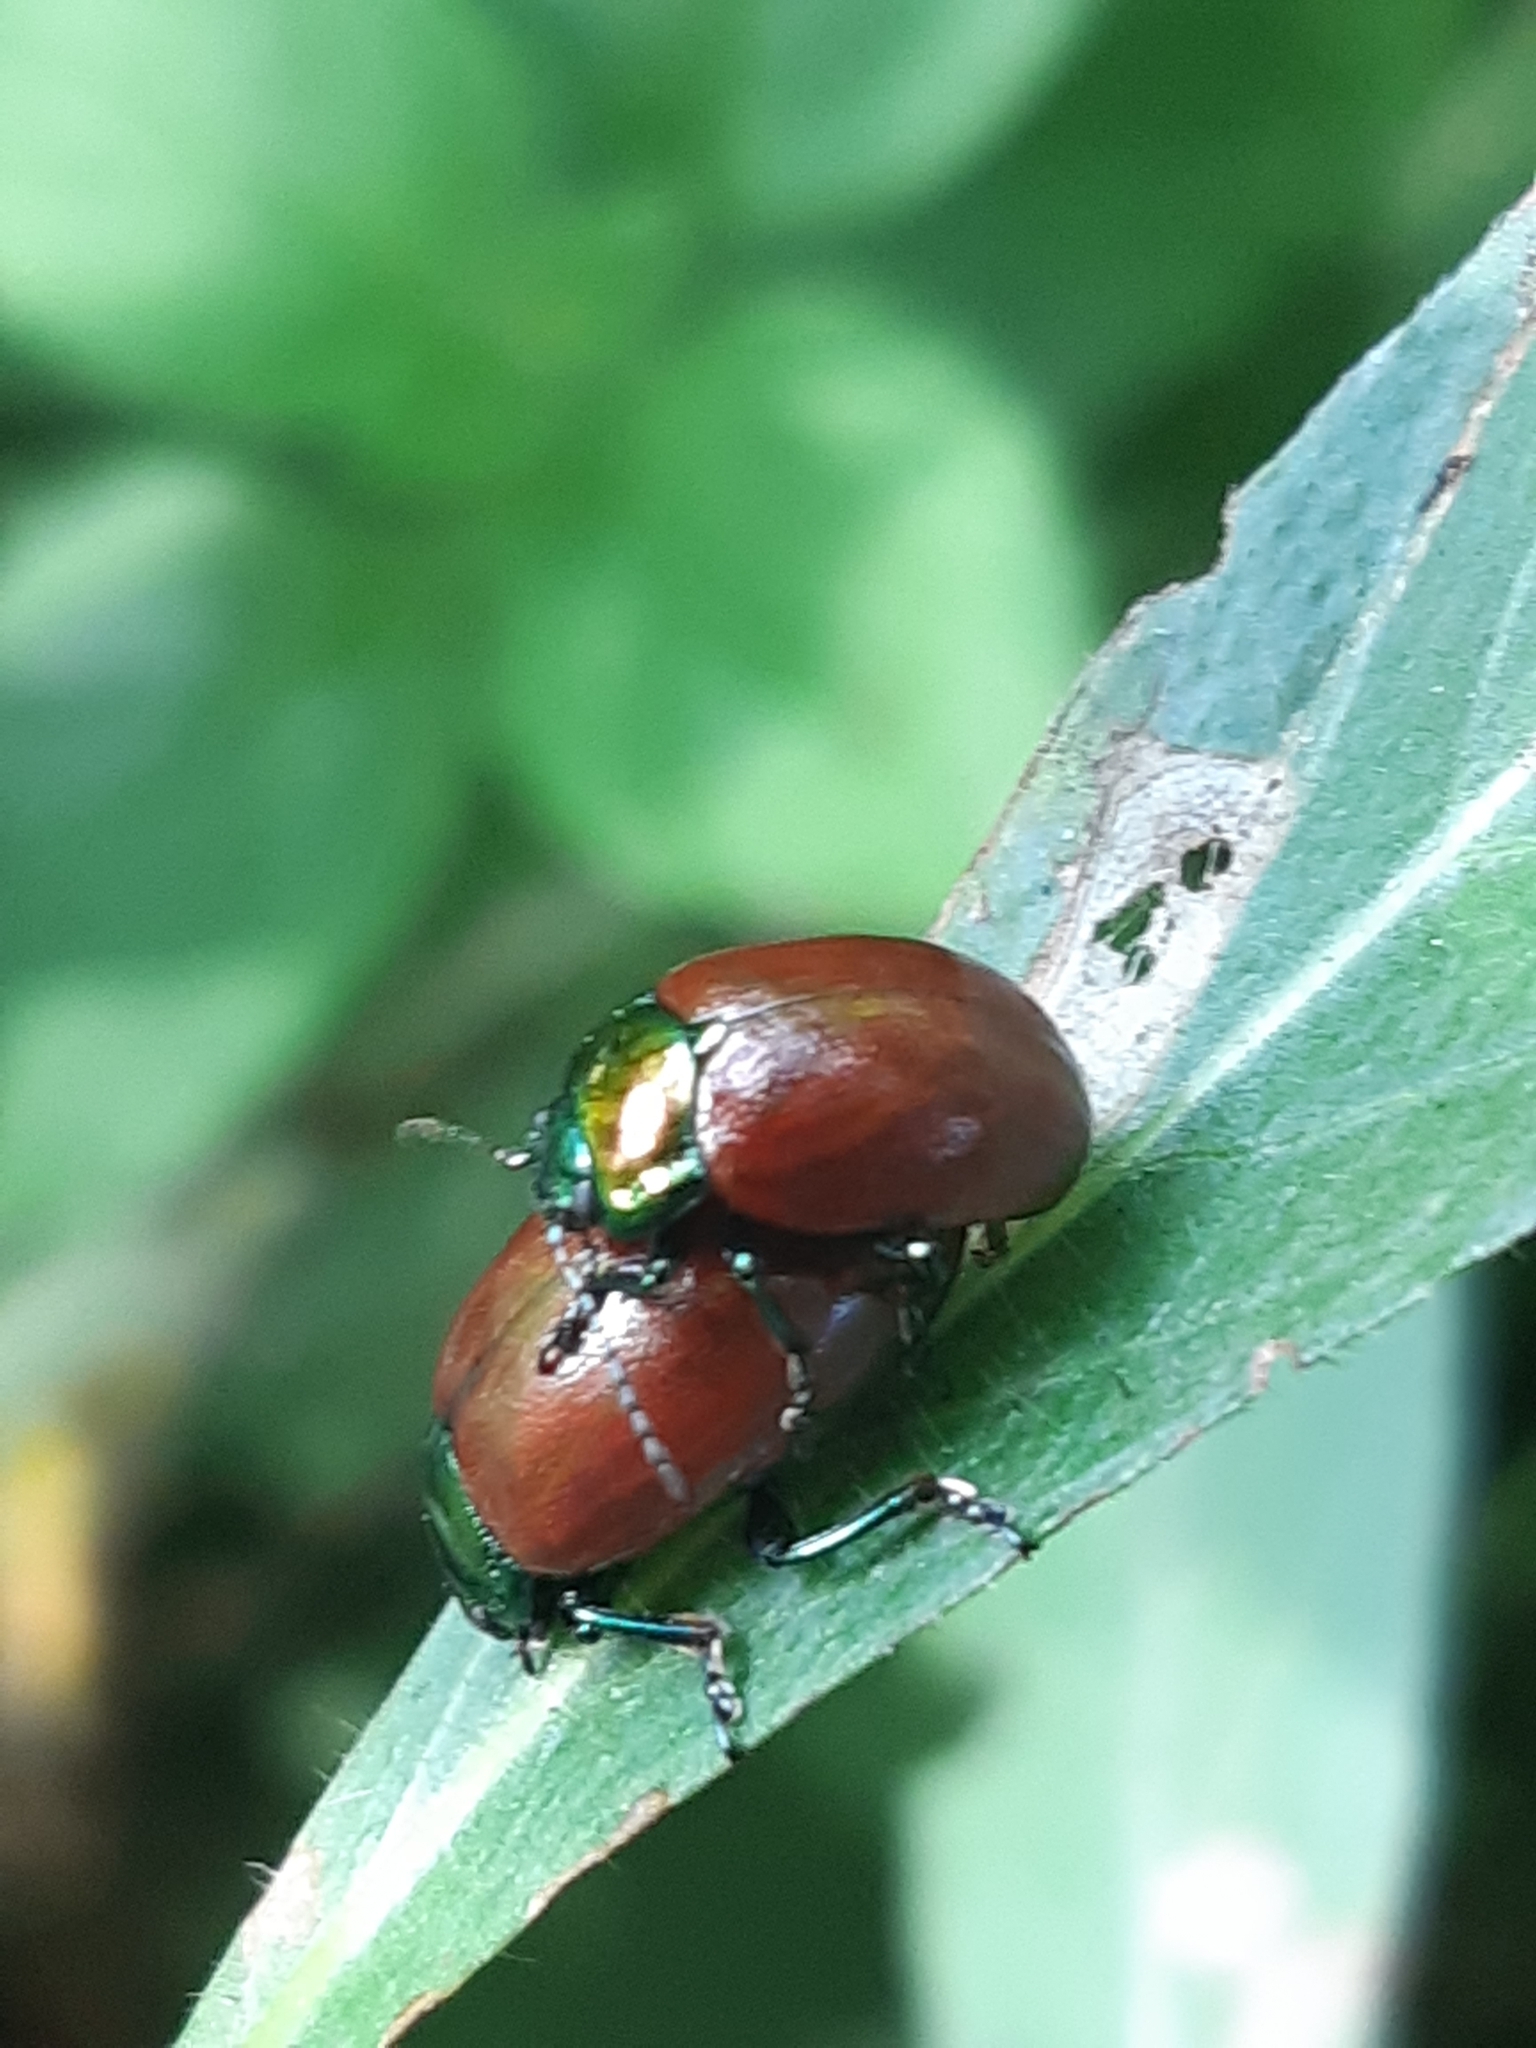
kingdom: Animalia
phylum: Arthropoda
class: Insecta
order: Coleoptera
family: Chrysomelidae
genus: Chrysomela
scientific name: Chrysomela polita
